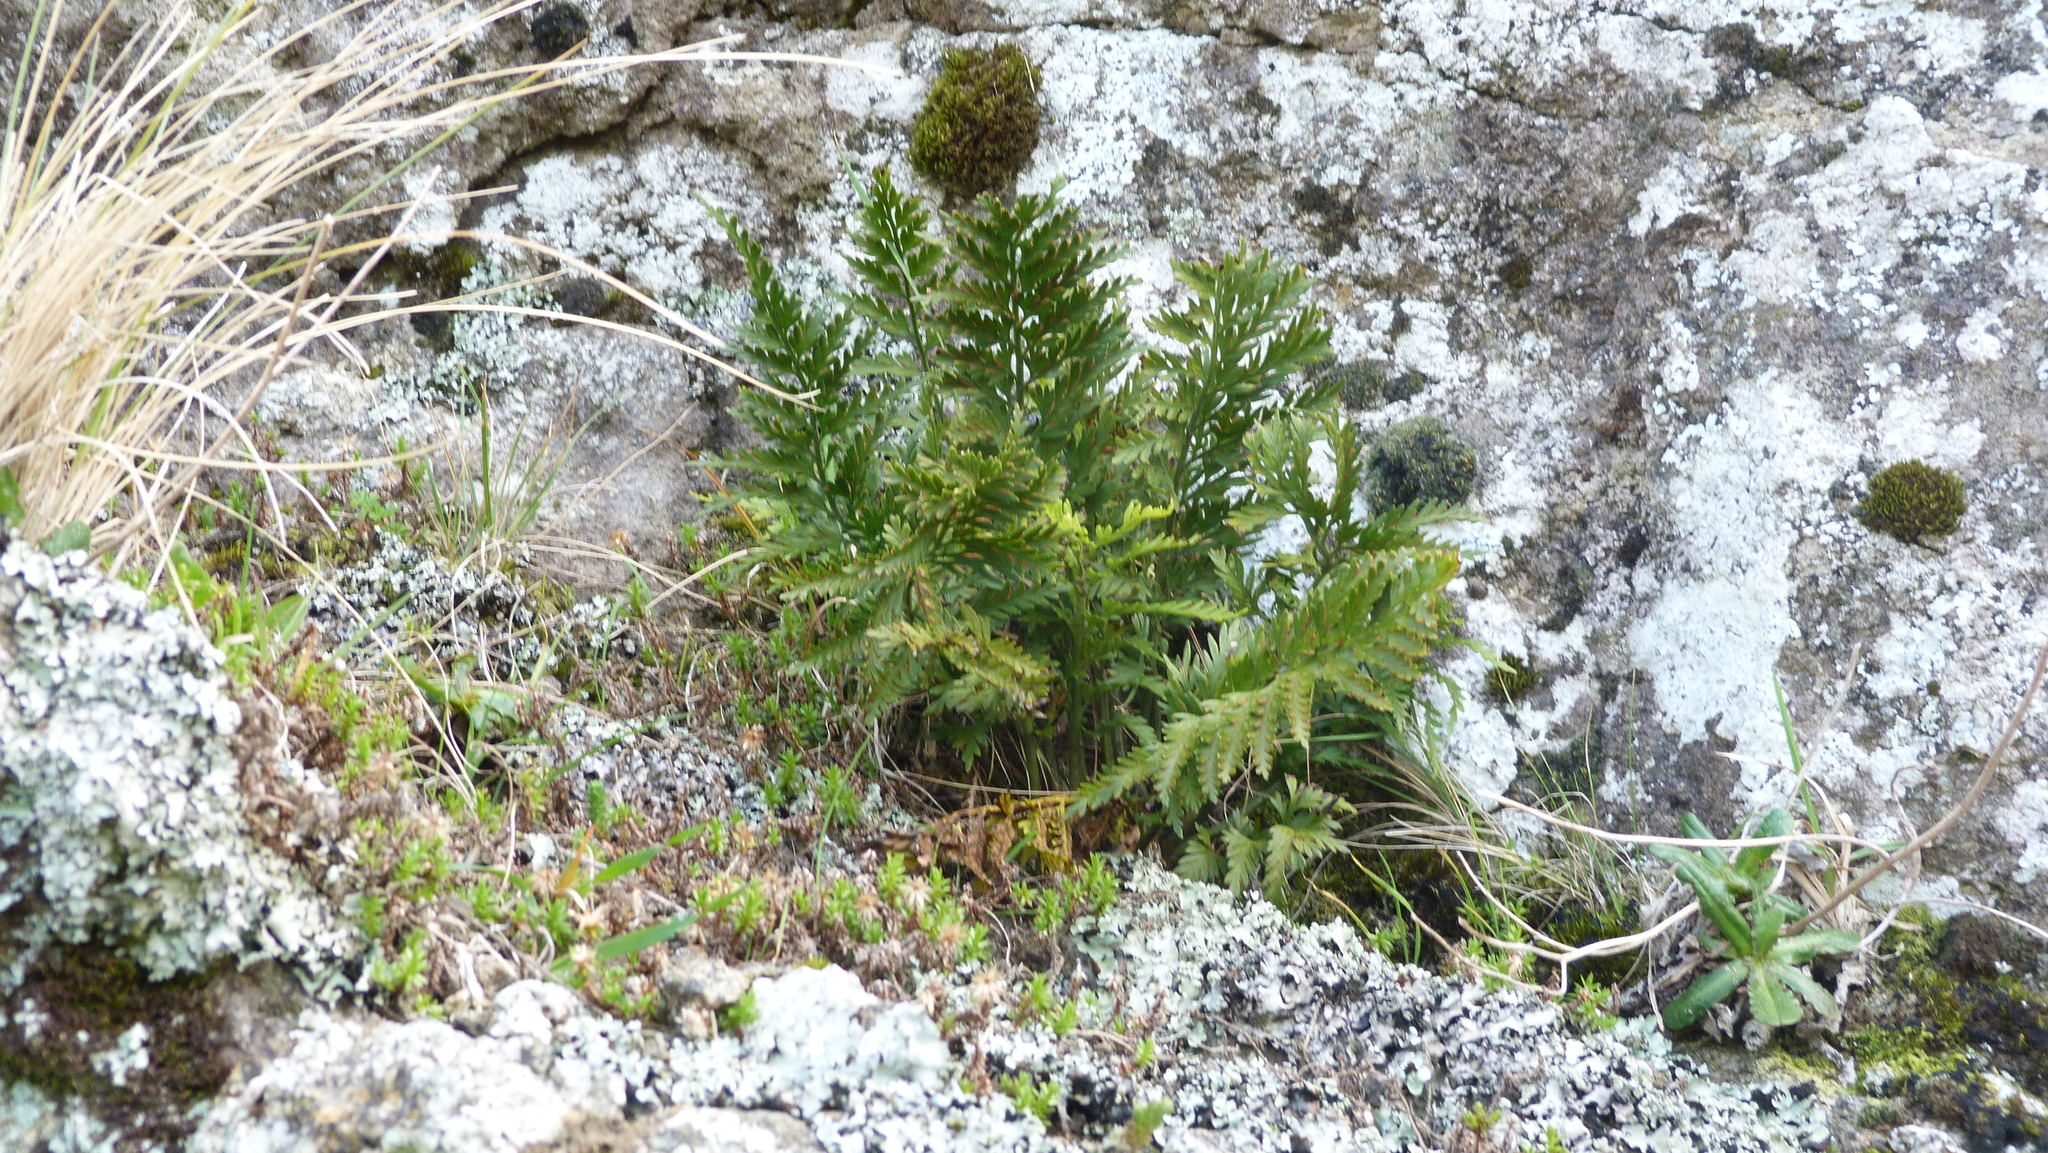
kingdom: Plantae
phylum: Tracheophyta
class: Polypodiopsida
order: Polypodiales
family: Aspleniaceae
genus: Asplenium
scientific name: Asplenium appendiculatum
